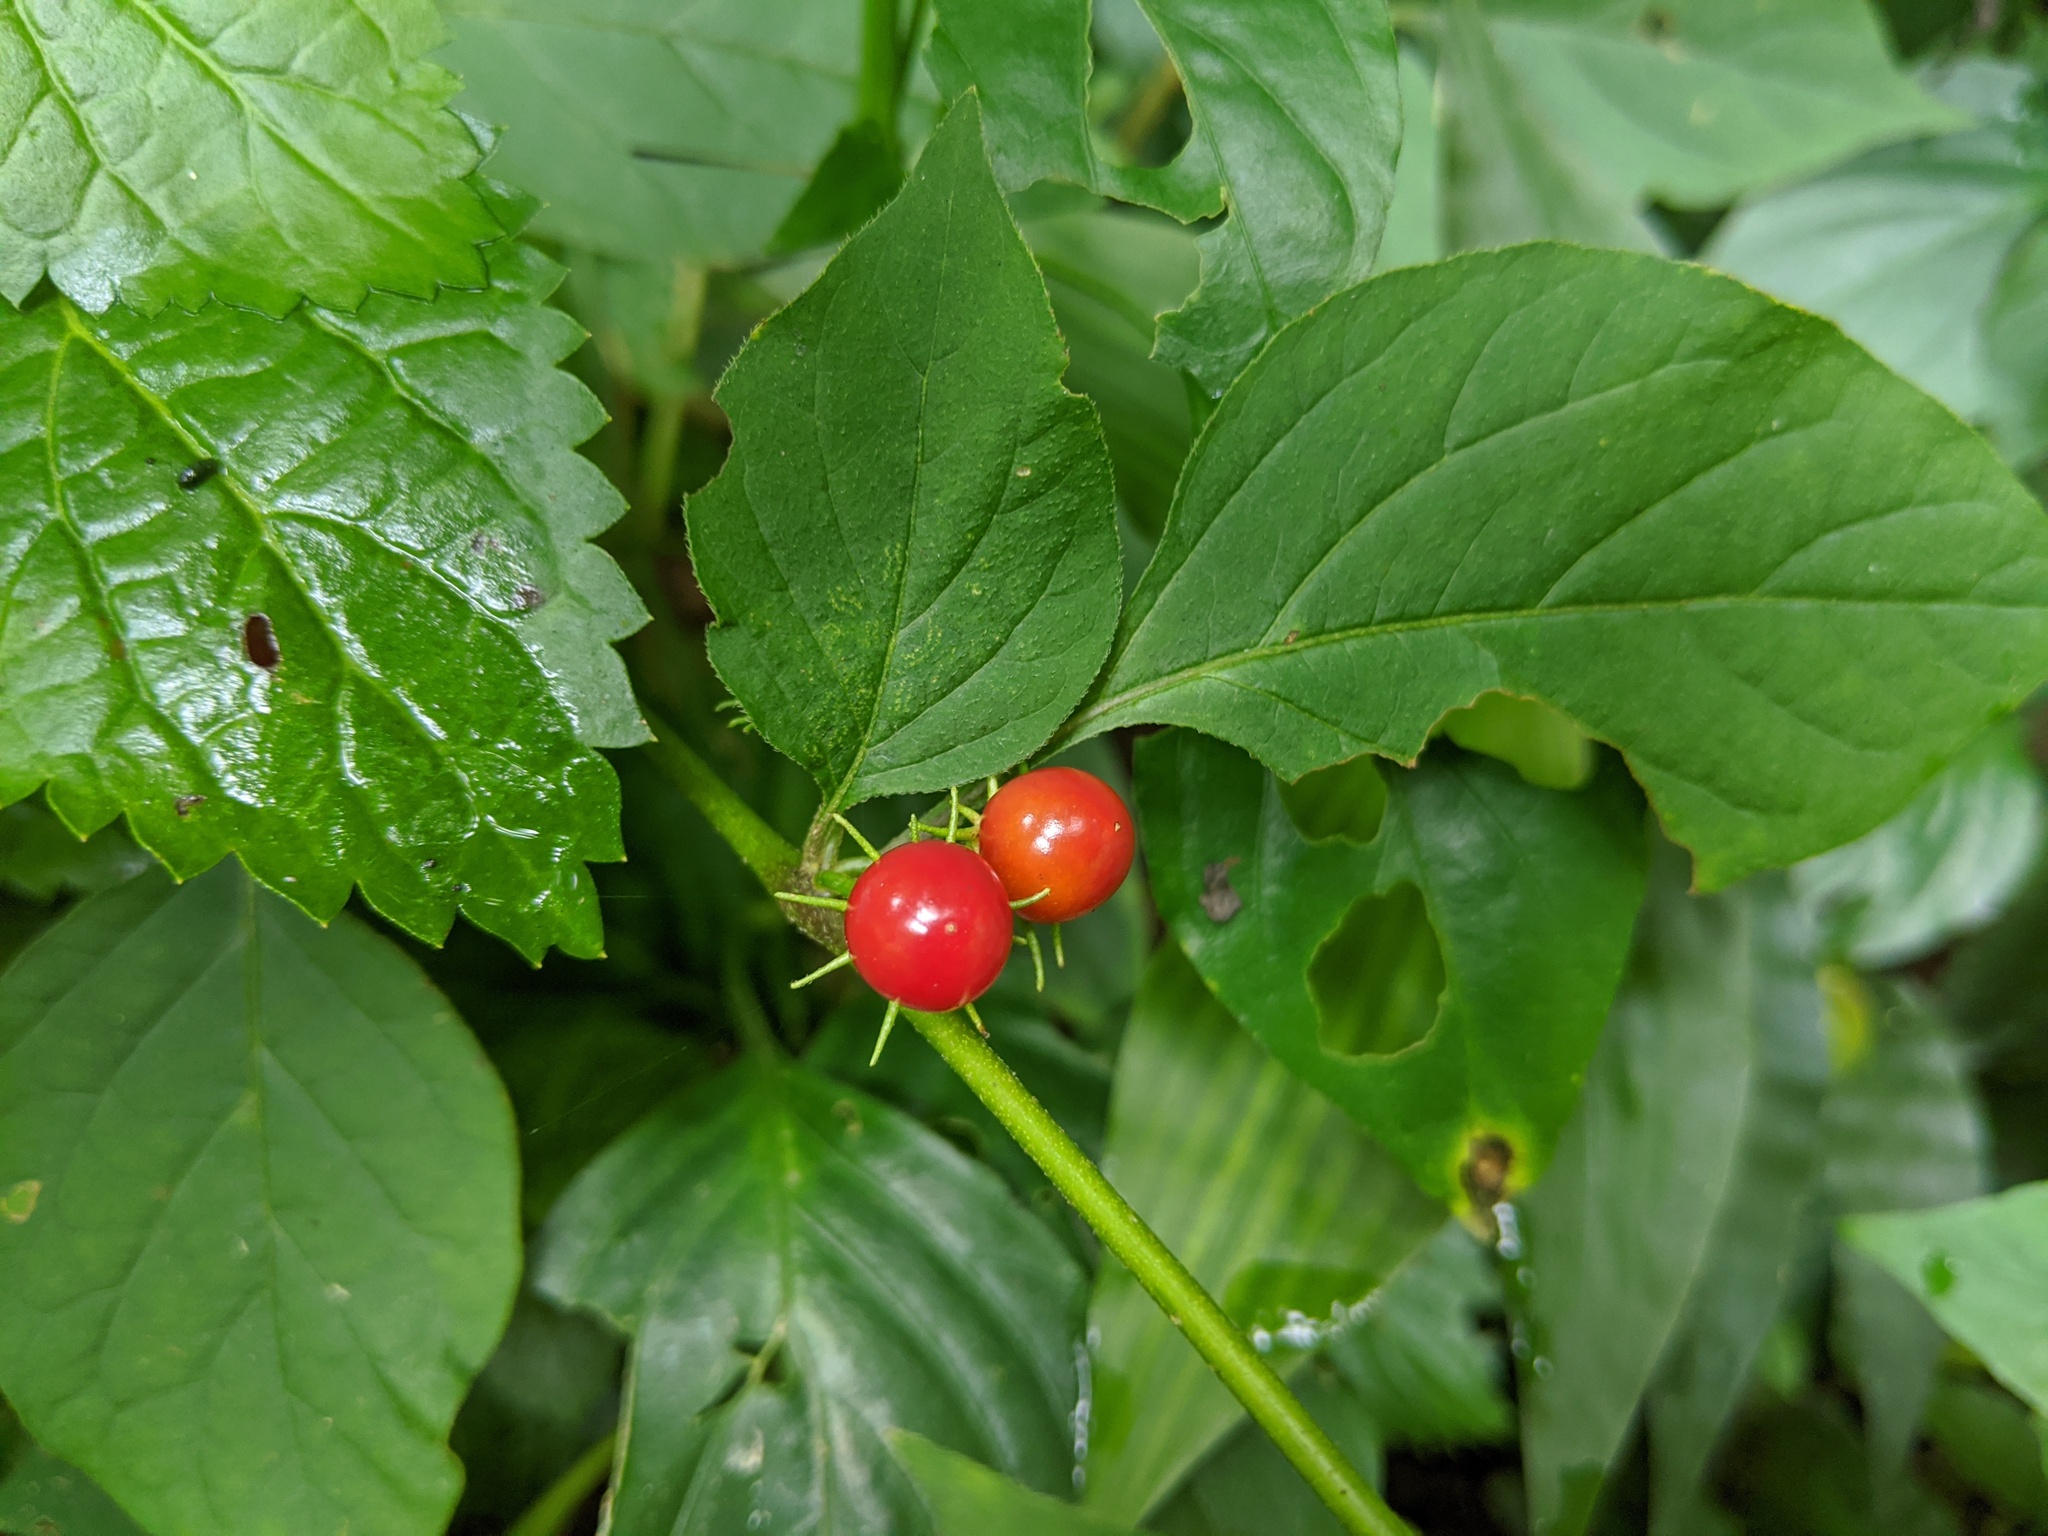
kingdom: Plantae
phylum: Tracheophyta
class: Magnoliopsida
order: Solanales
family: Solanaceae
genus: Lycianthes
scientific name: Lycianthes biflora
